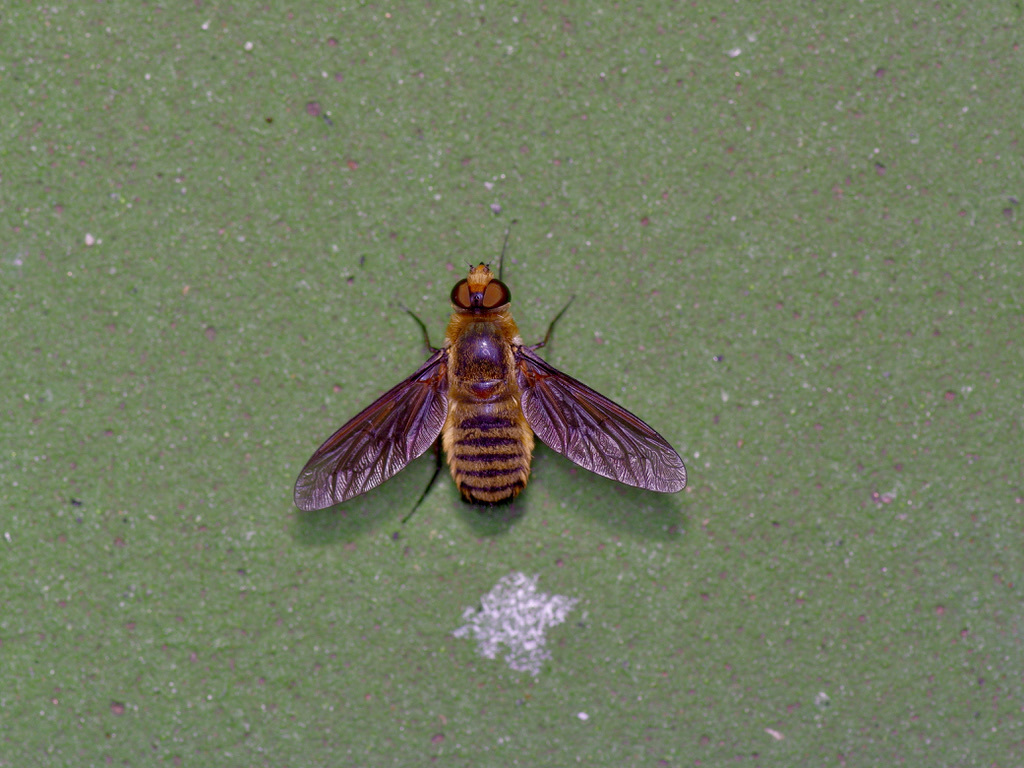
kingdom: Animalia
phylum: Arthropoda
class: Insecta
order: Diptera
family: Bombyliidae
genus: Poecilanthrax
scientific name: Poecilanthrax lucifer
